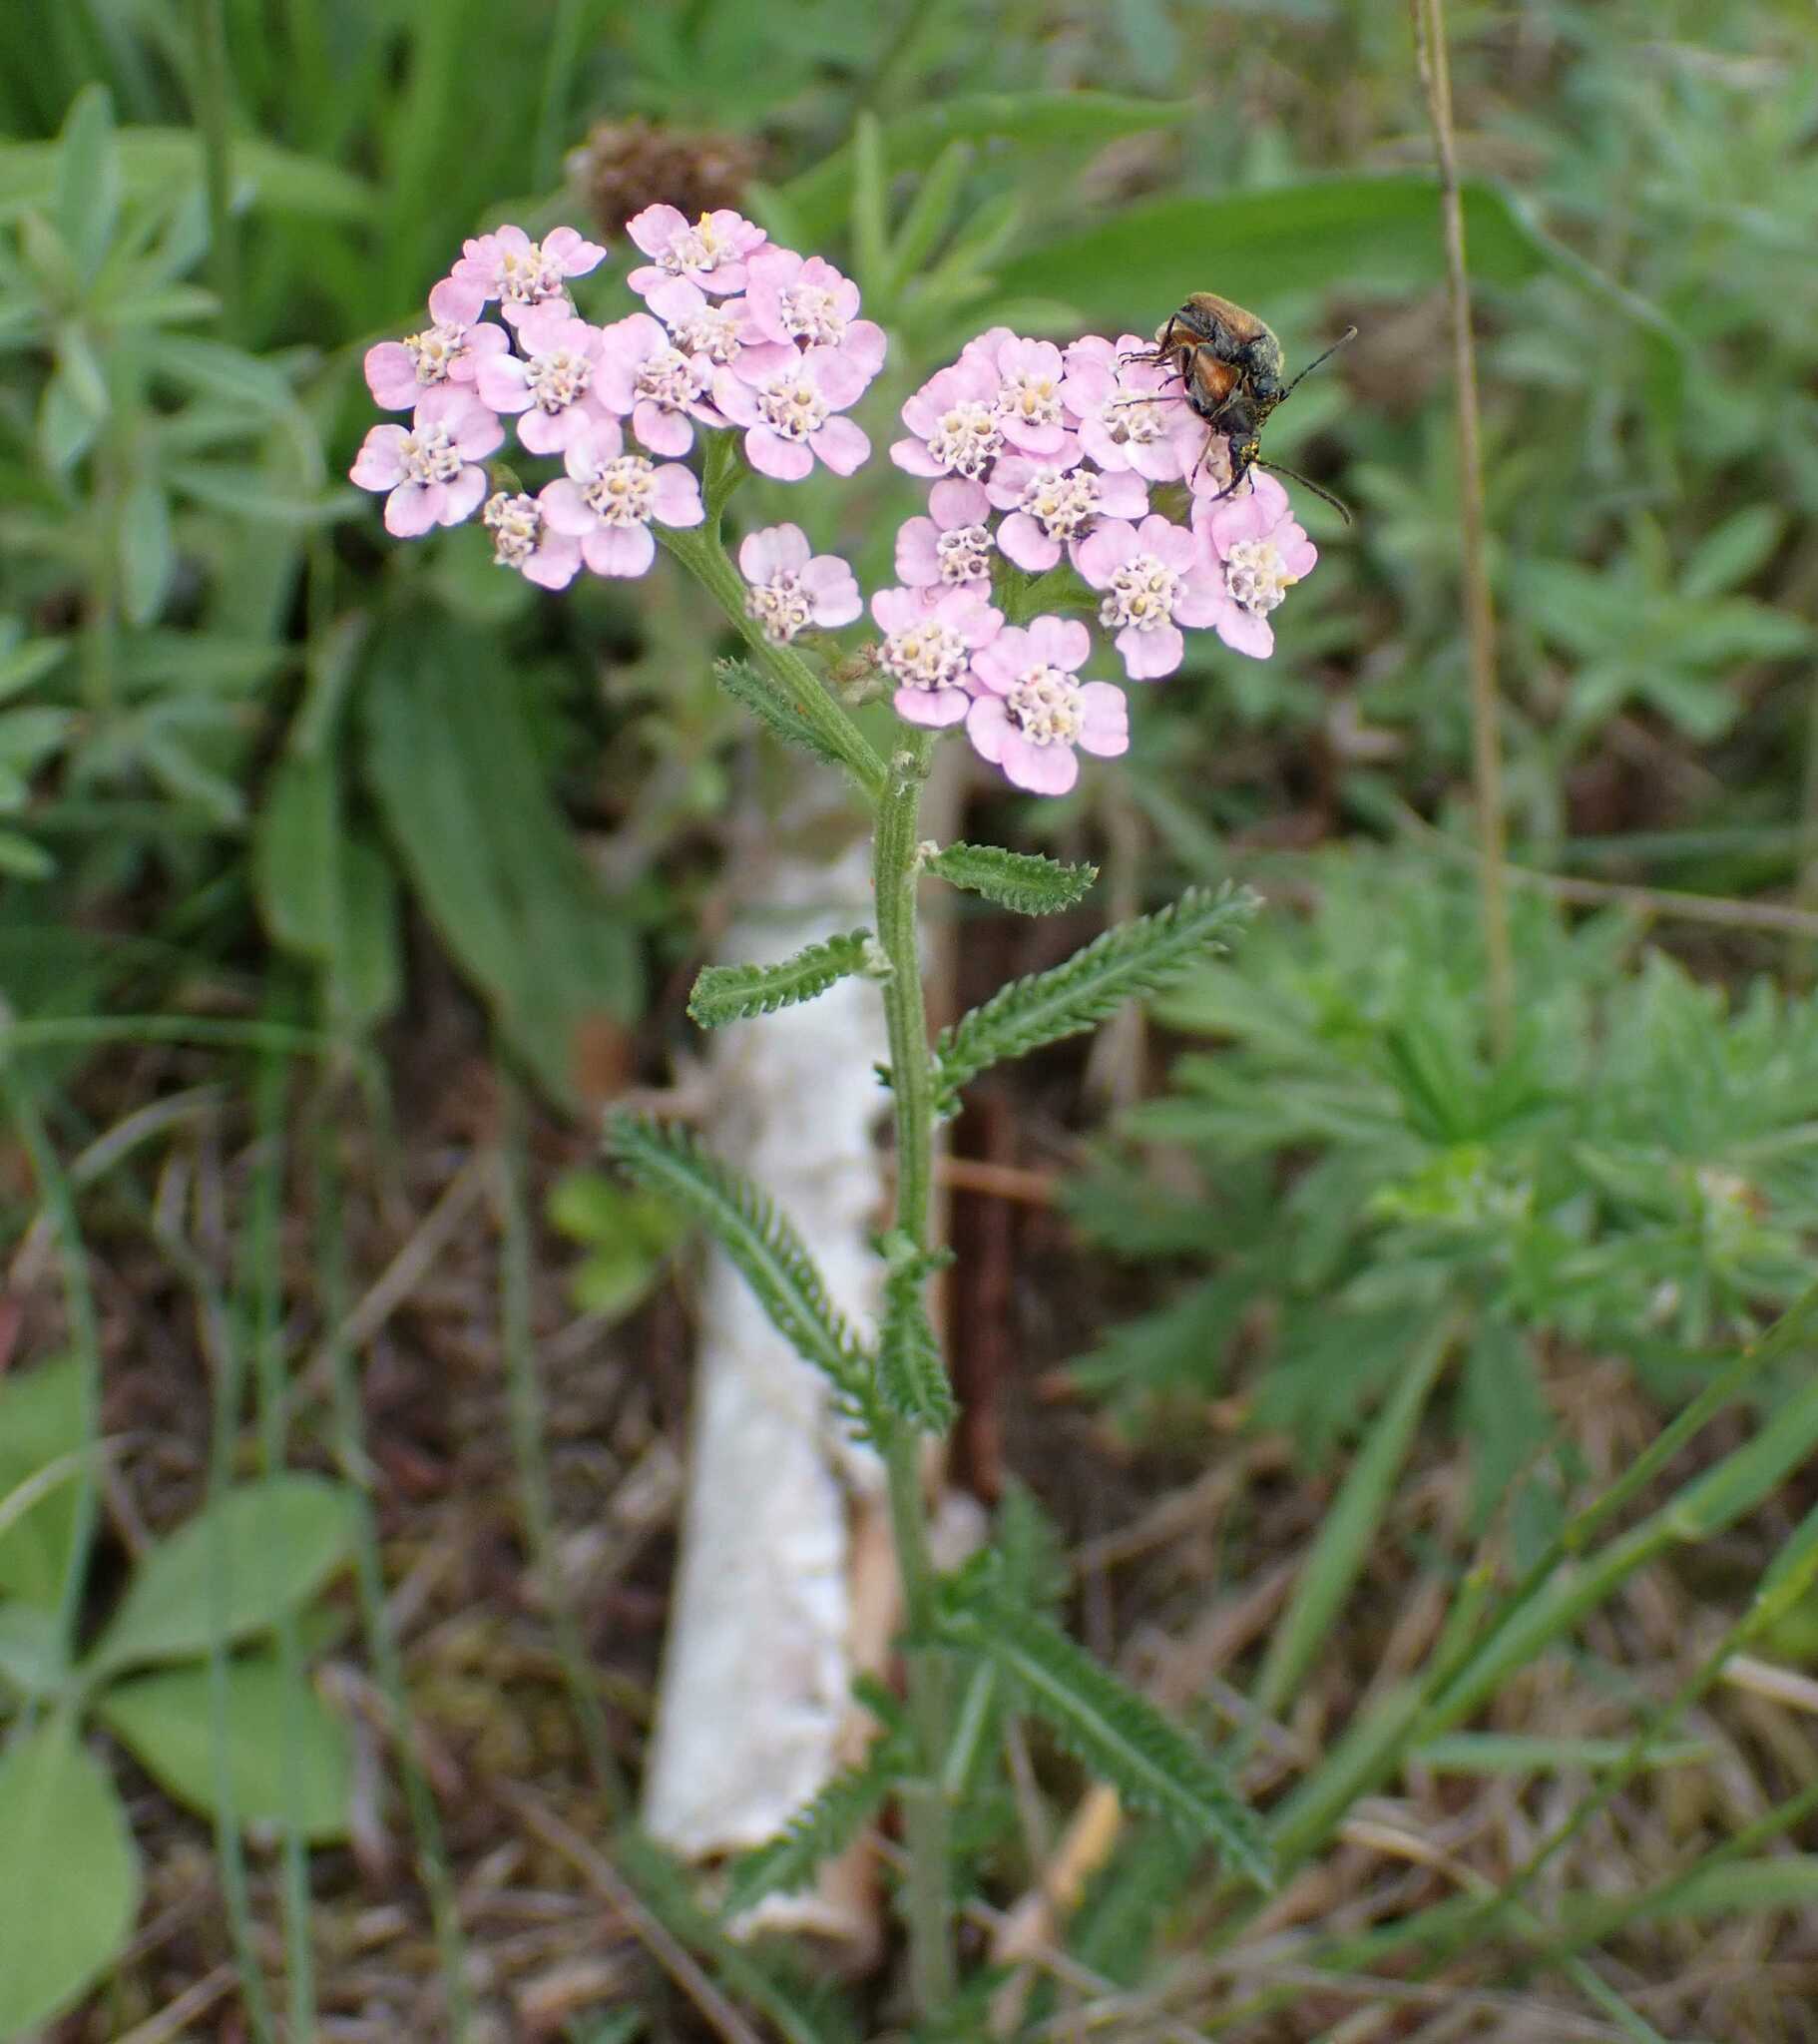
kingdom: Animalia
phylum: Arthropoda
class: Insecta
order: Coleoptera
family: Cerambycidae
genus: Pseudovadonia
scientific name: Pseudovadonia livida
